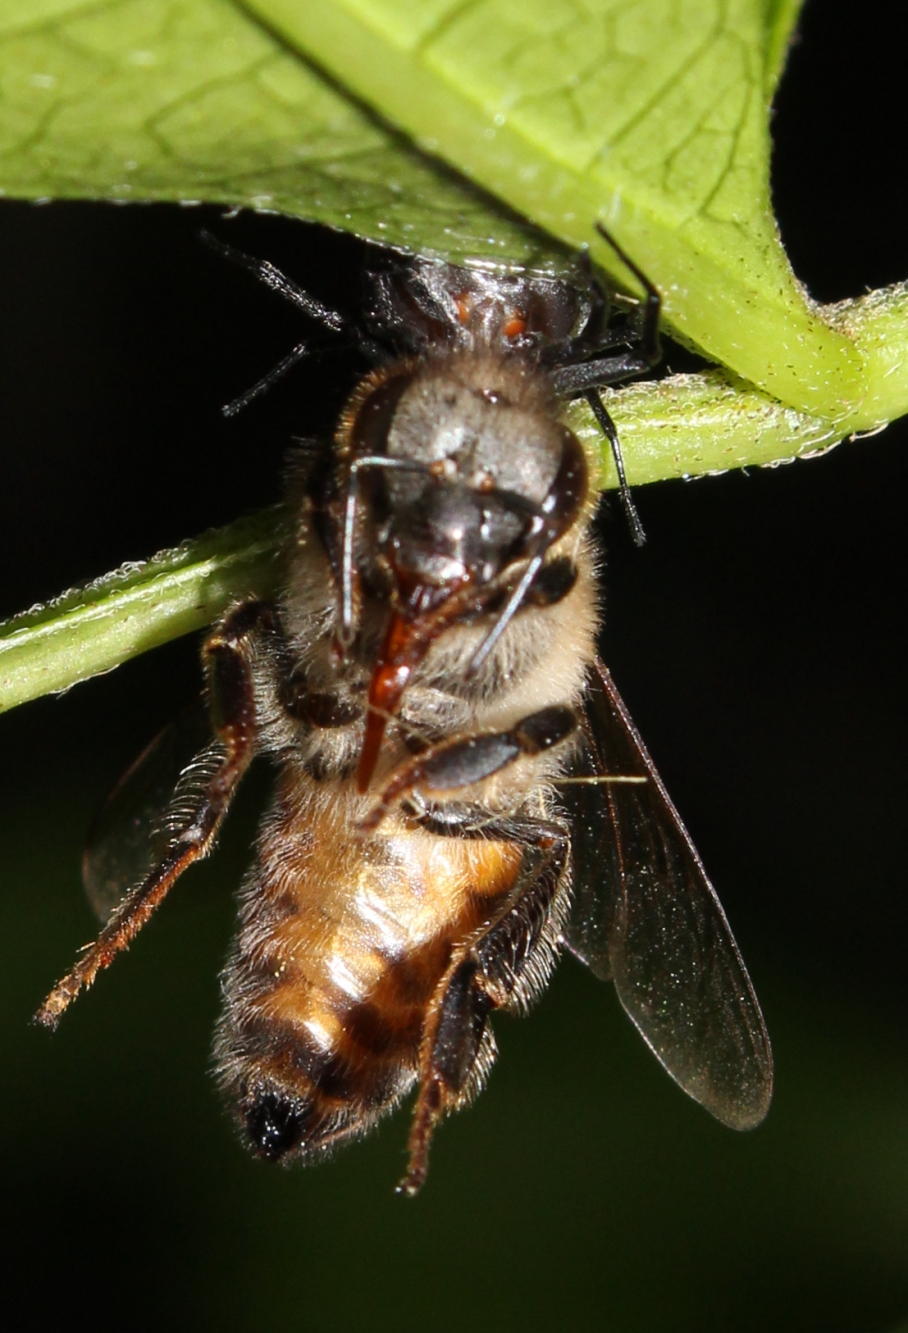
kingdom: Animalia
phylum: Arthropoda
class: Insecta
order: Hymenoptera
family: Apidae
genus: Apis
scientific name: Apis mellifera
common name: Honey bee
